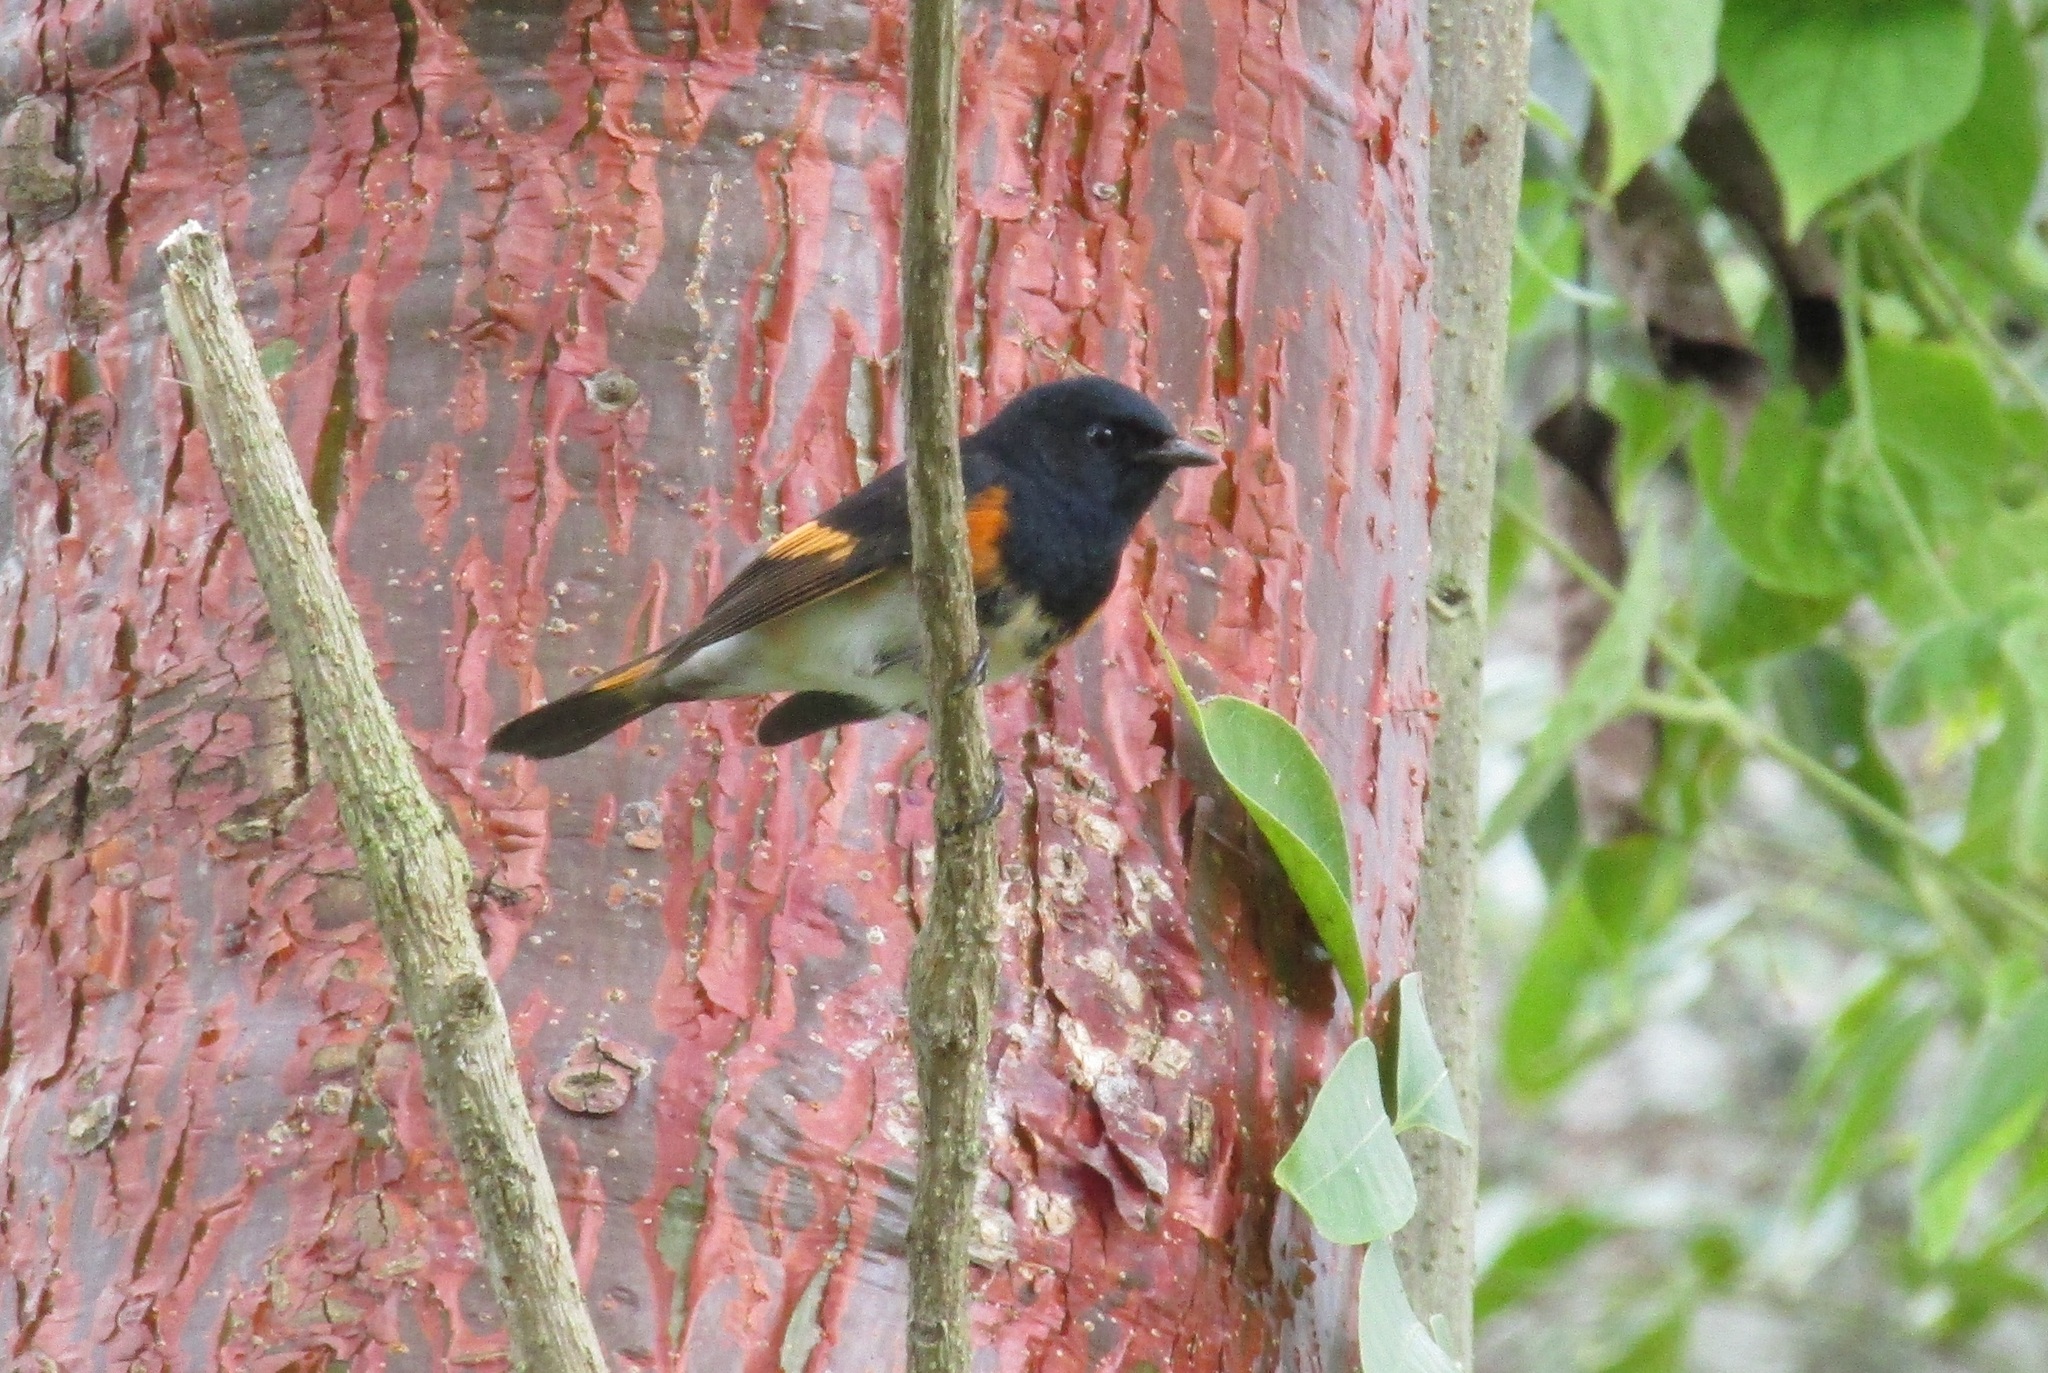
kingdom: Animalia
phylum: Chordata
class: Aves
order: Passeriformes
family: Parulidae
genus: Setophaga
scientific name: Setophaga ruticilla
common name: American redstart
